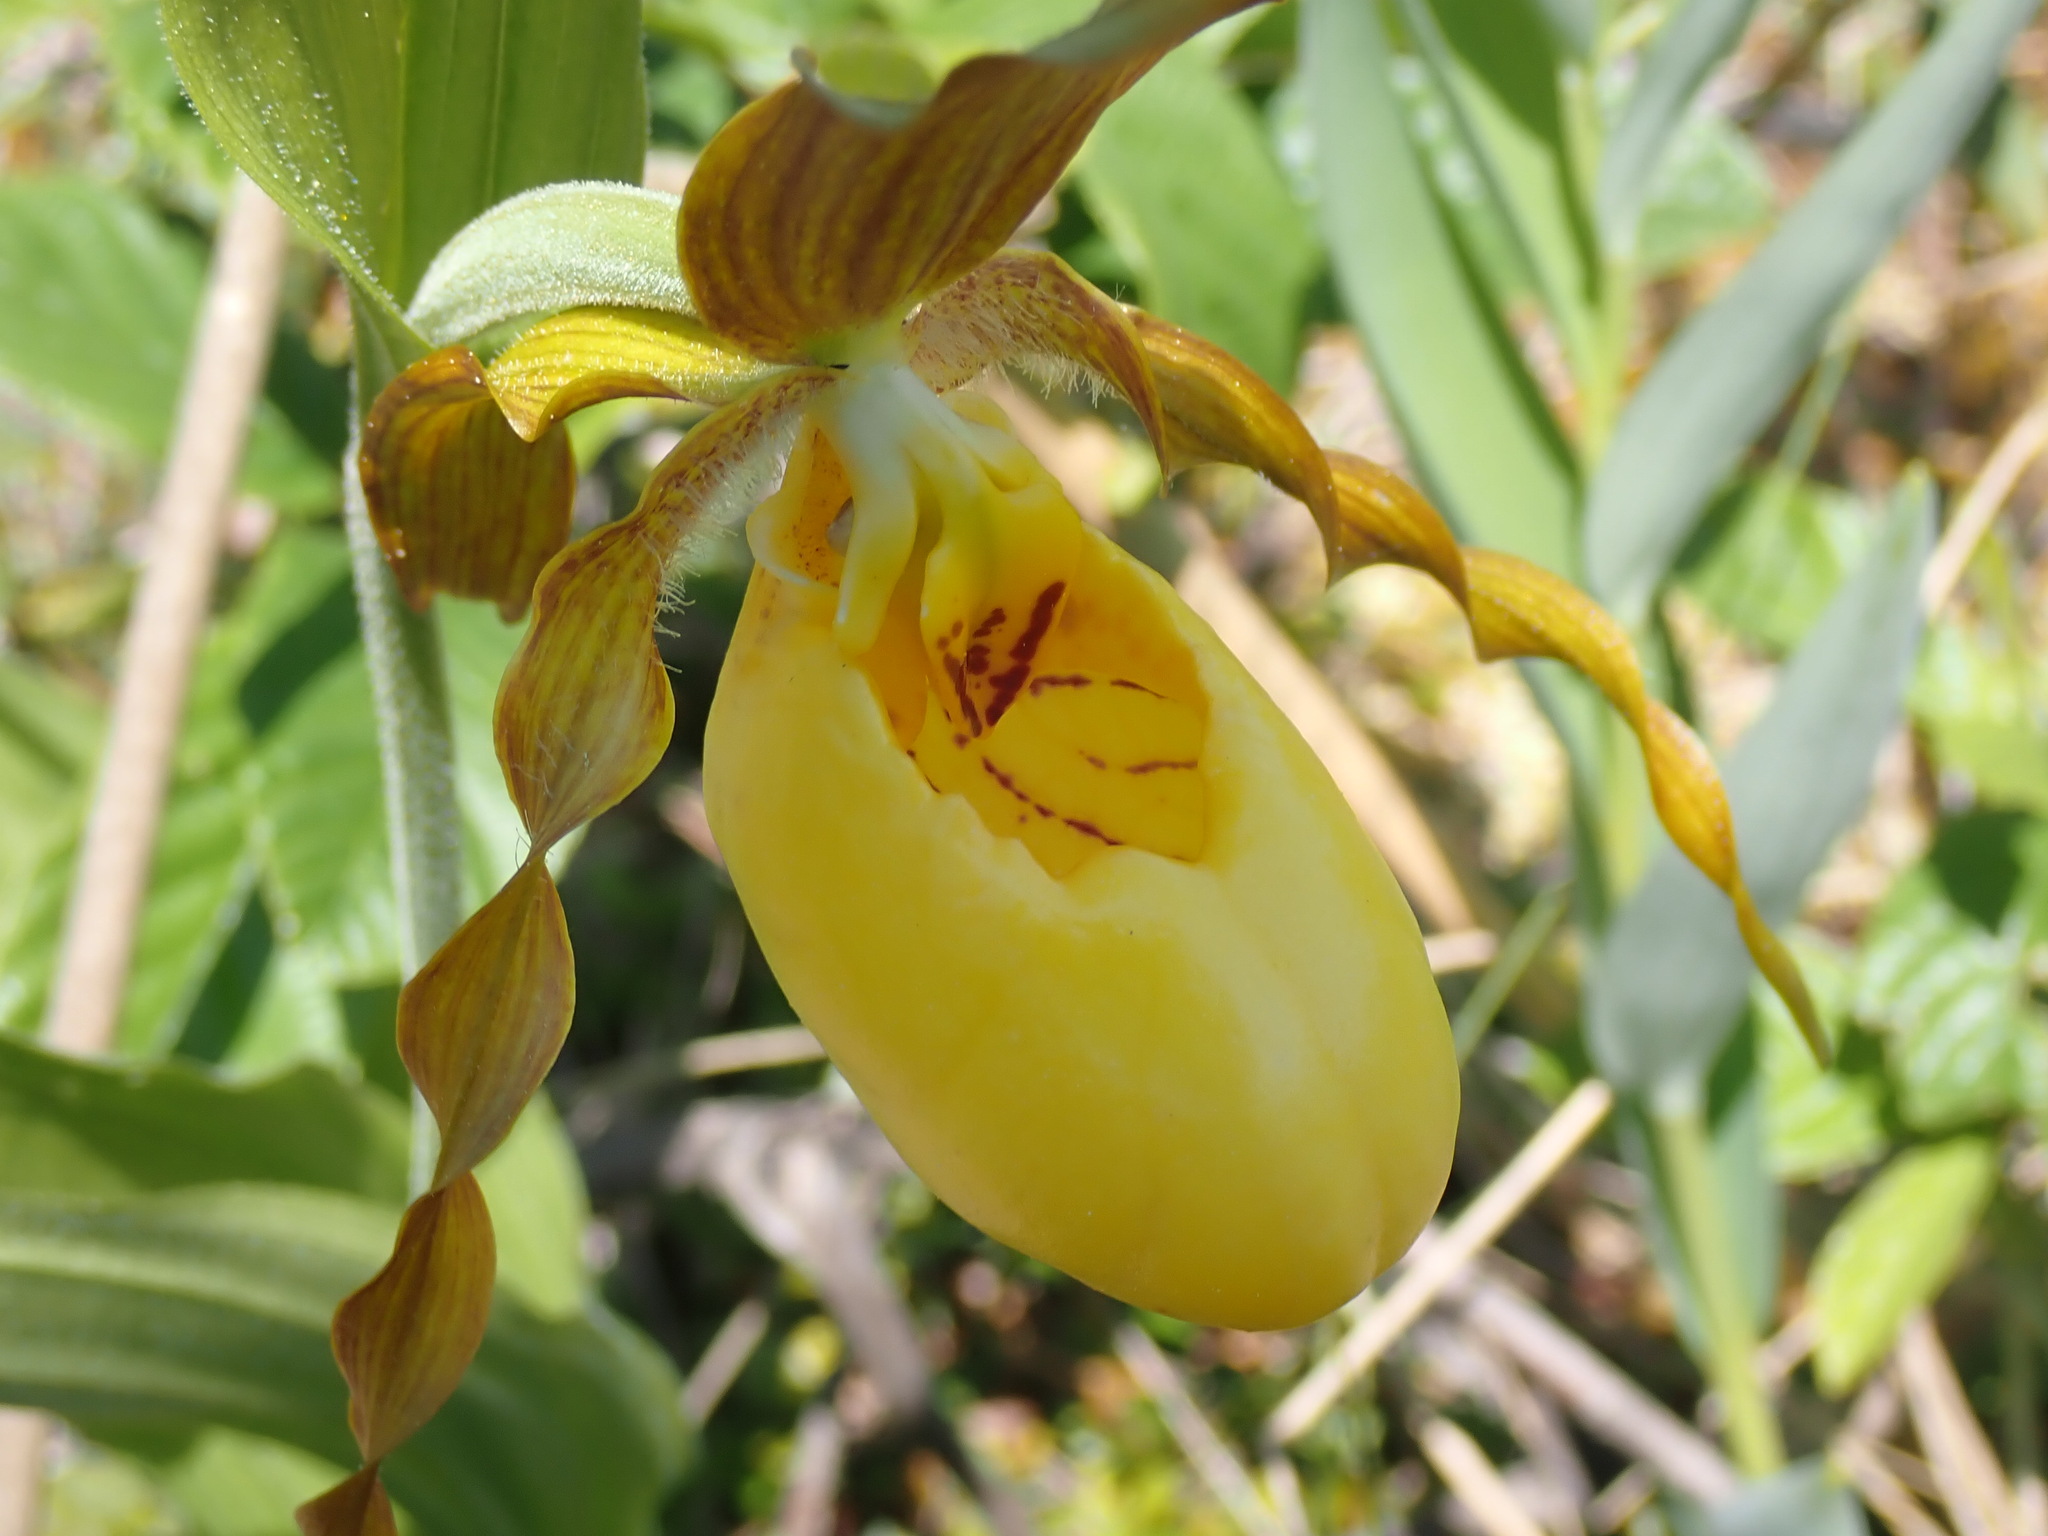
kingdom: Plantae
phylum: Tracheophyta
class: Liliopsida
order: Asparagales
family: Orchidaceae
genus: Cypripedium
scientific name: Cypripedium parviflorum
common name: American yellow lady's-slipper
